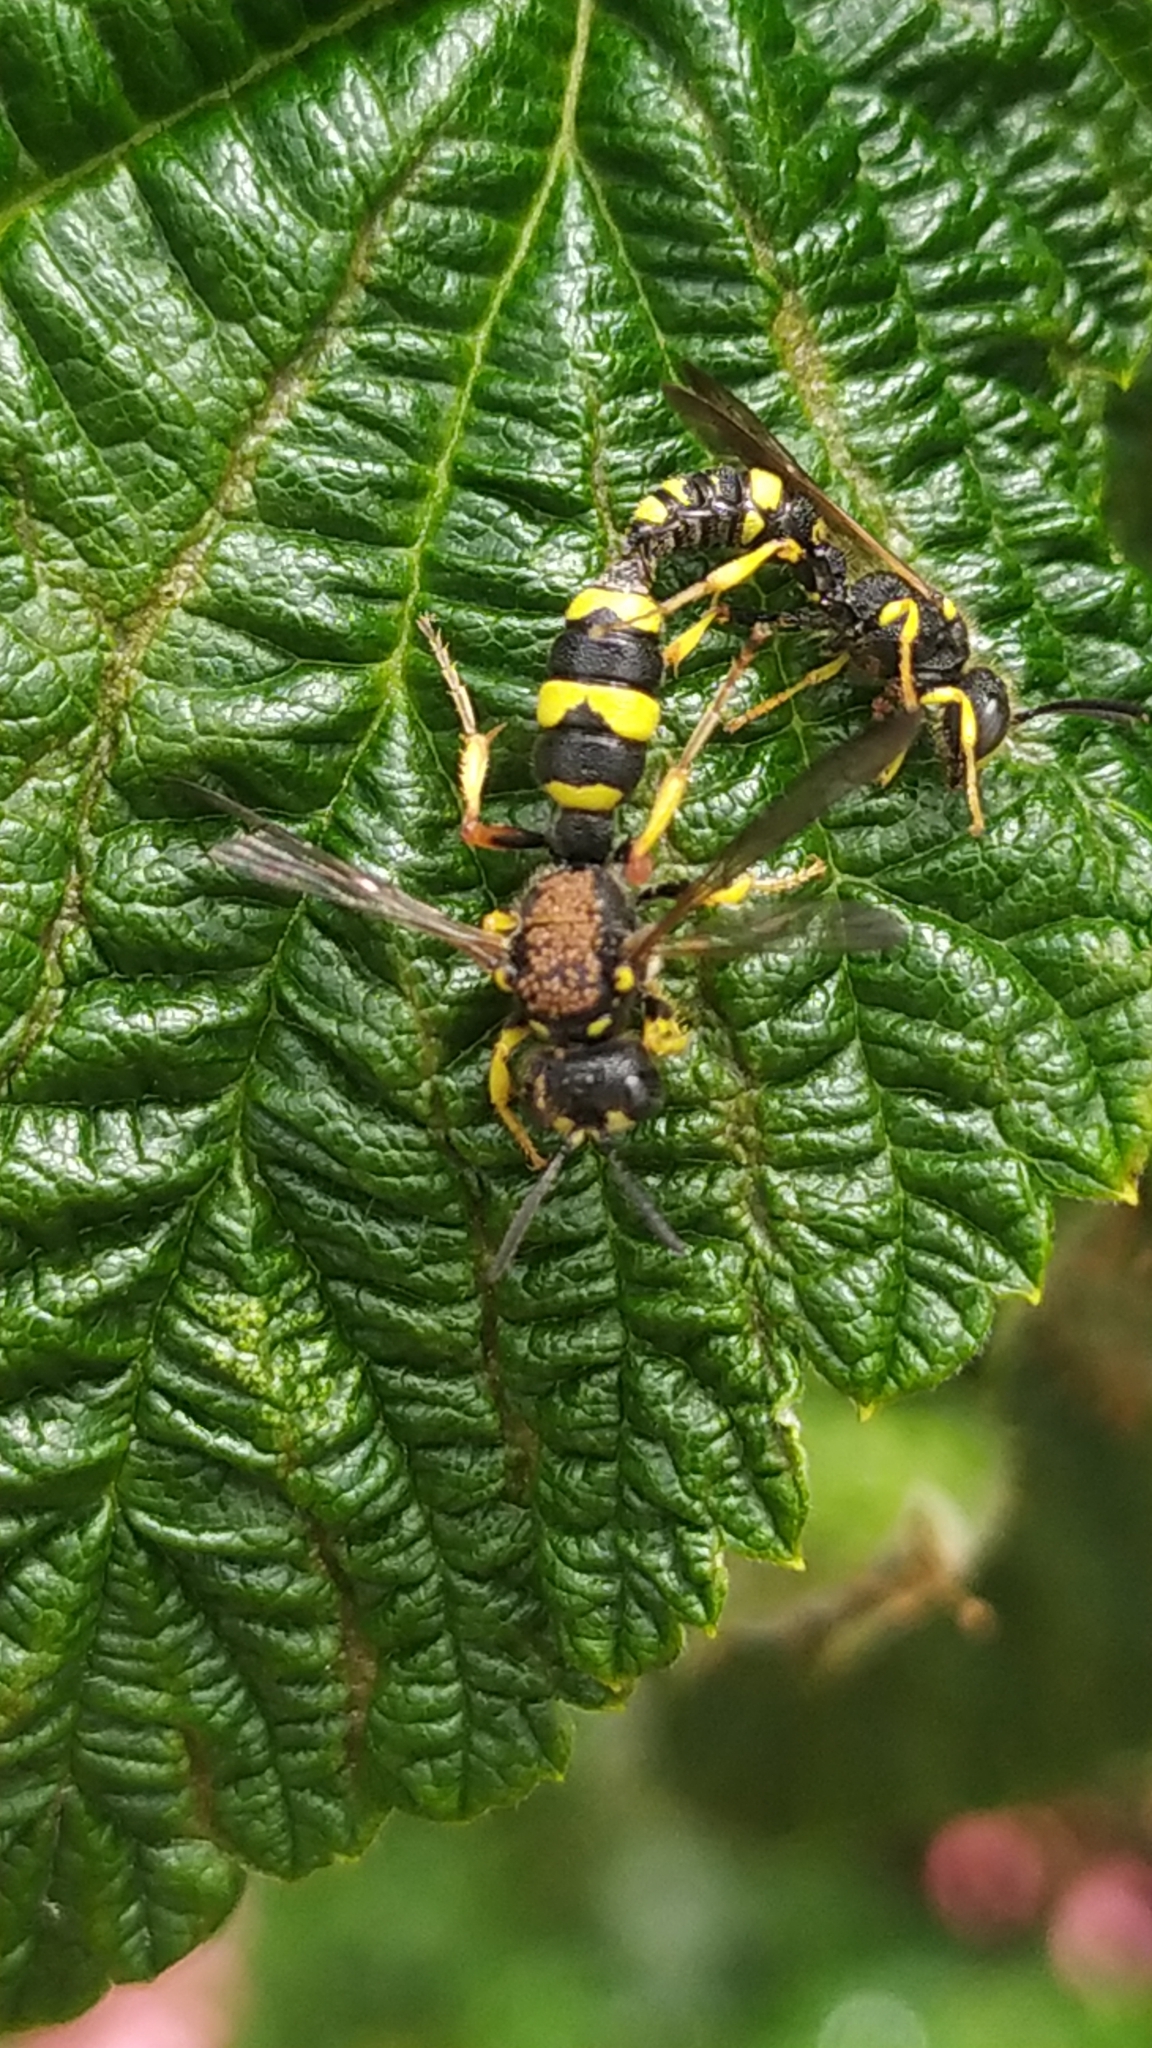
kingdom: Animalia
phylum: Arthropoda
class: Insecta
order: Hymenoptera
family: Crabronidae
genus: Cerceris
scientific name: Cerceris rybyensis
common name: Ornate tailed digger wasp
